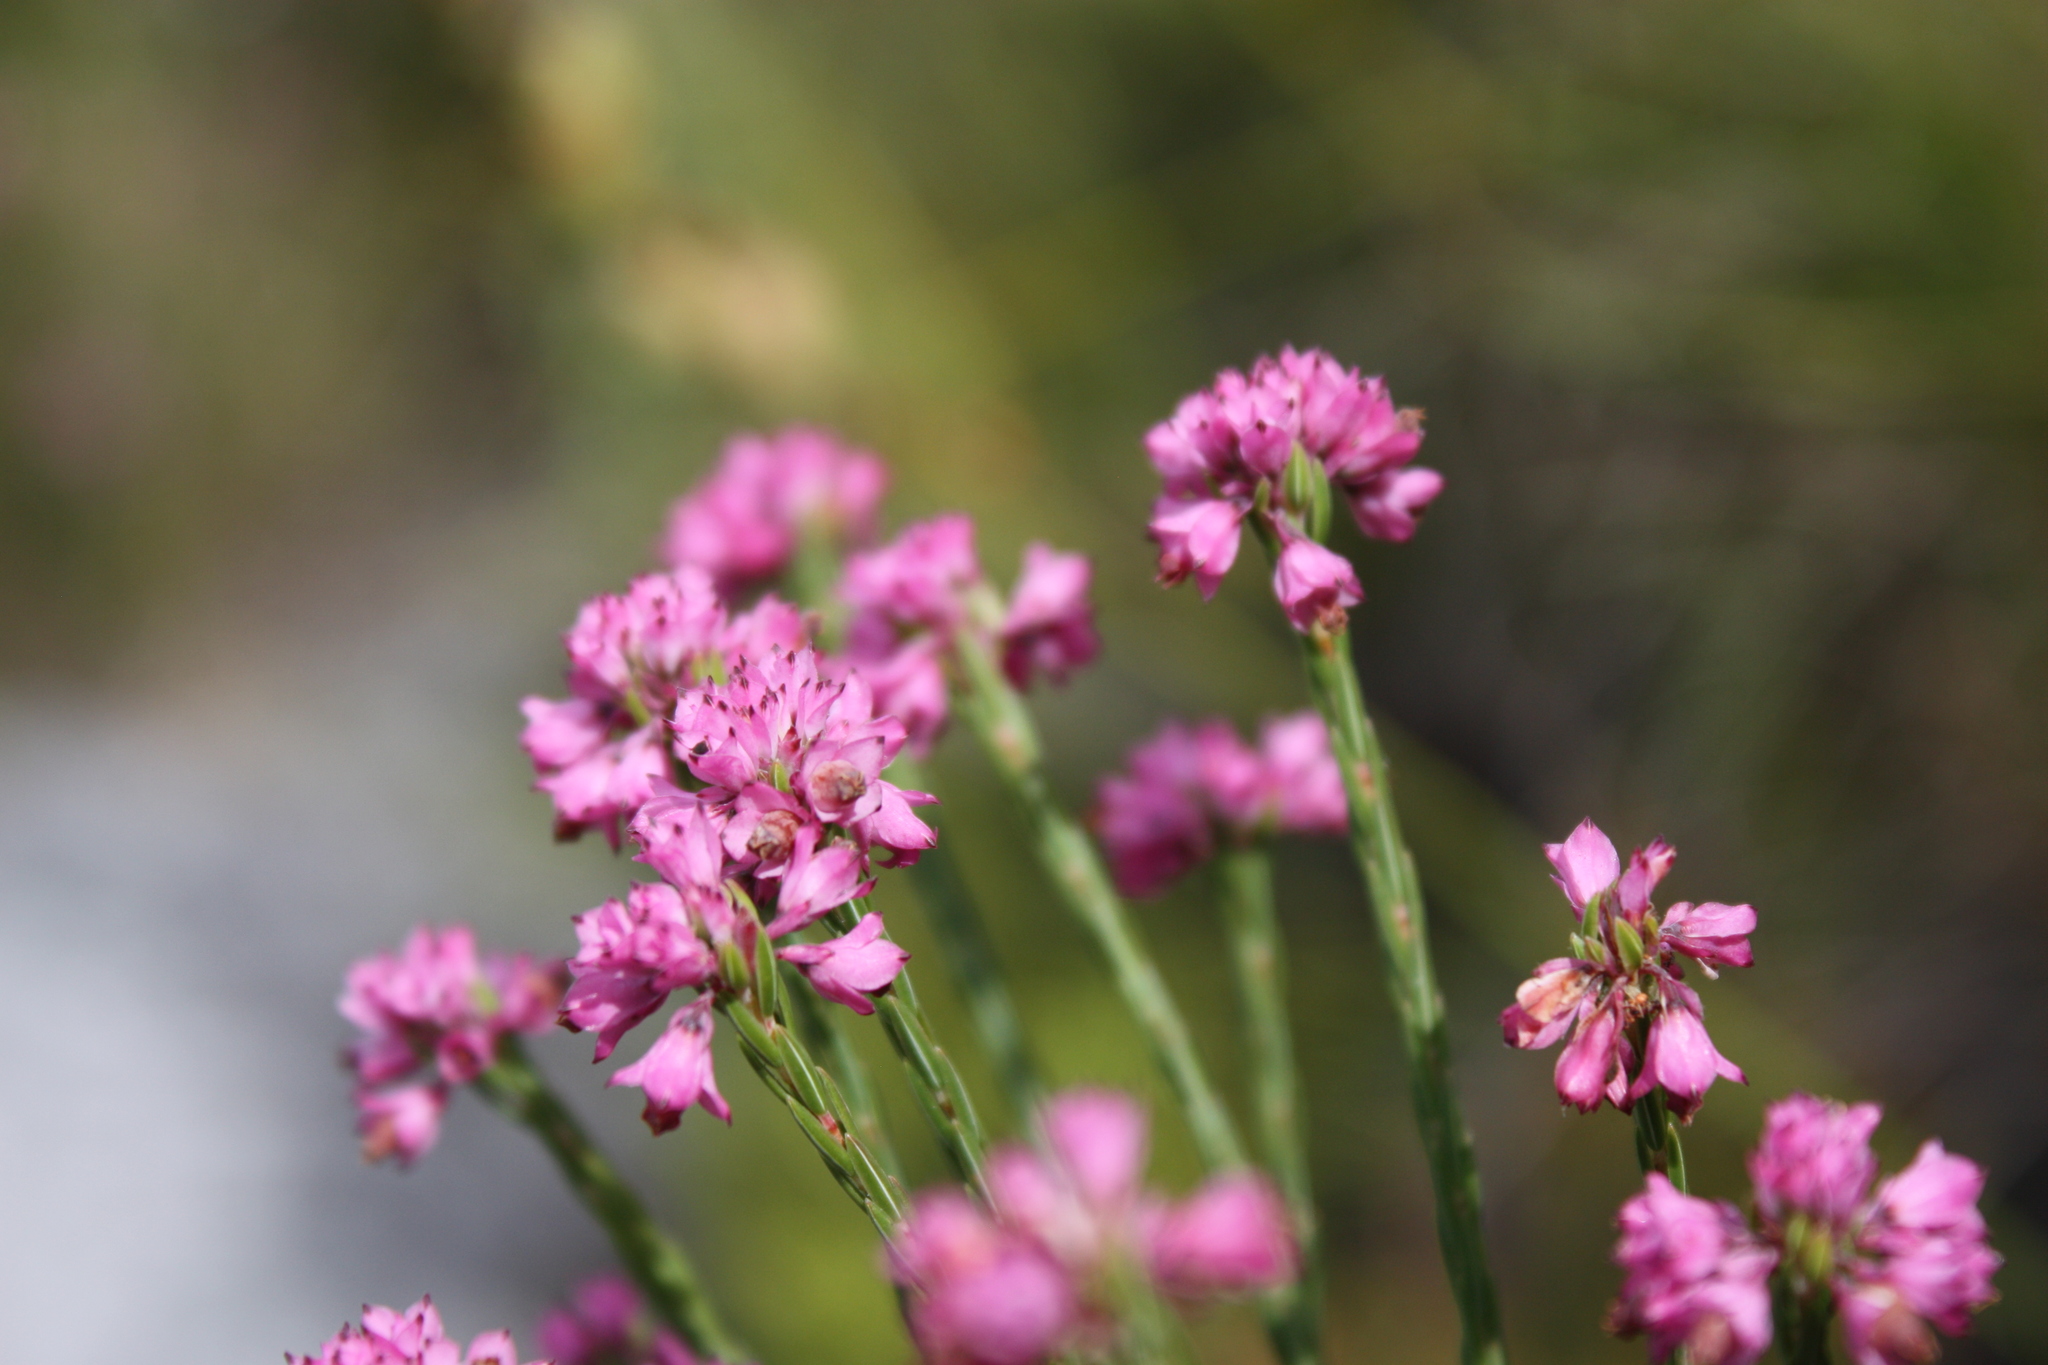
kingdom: Plantae
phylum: Tracheophyta
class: Magnoliopsida
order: Ericales
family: Ericaceae
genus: Erica
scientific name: Erica corifolia
